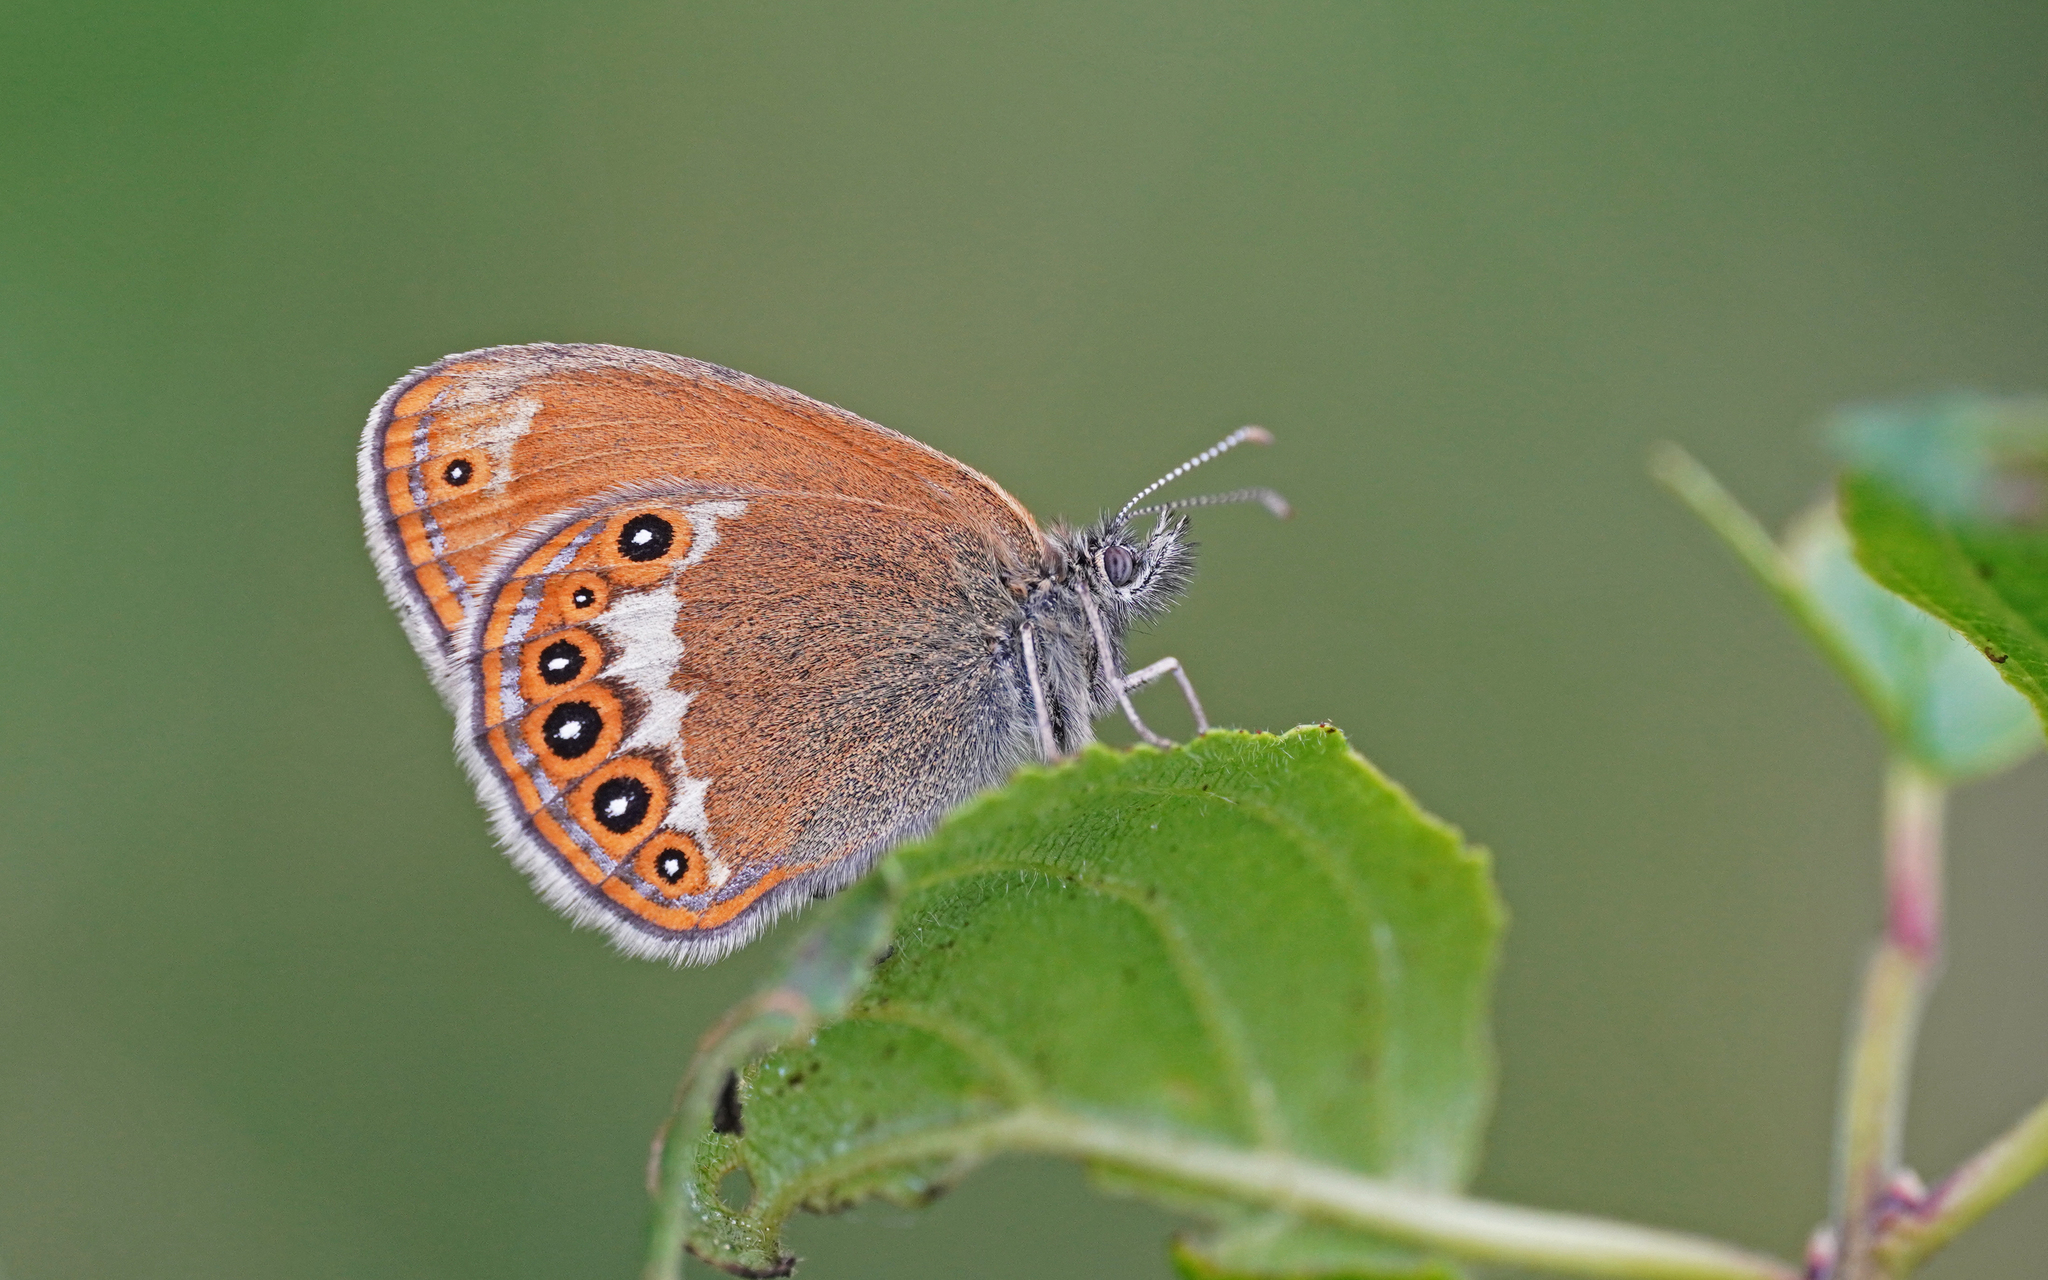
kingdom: Animalia
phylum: Arthropoda
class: Insecta
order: Lepidoptera
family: Nymphalidae
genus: Coenonympha
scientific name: Coenonympha hero
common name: Scarce heath
